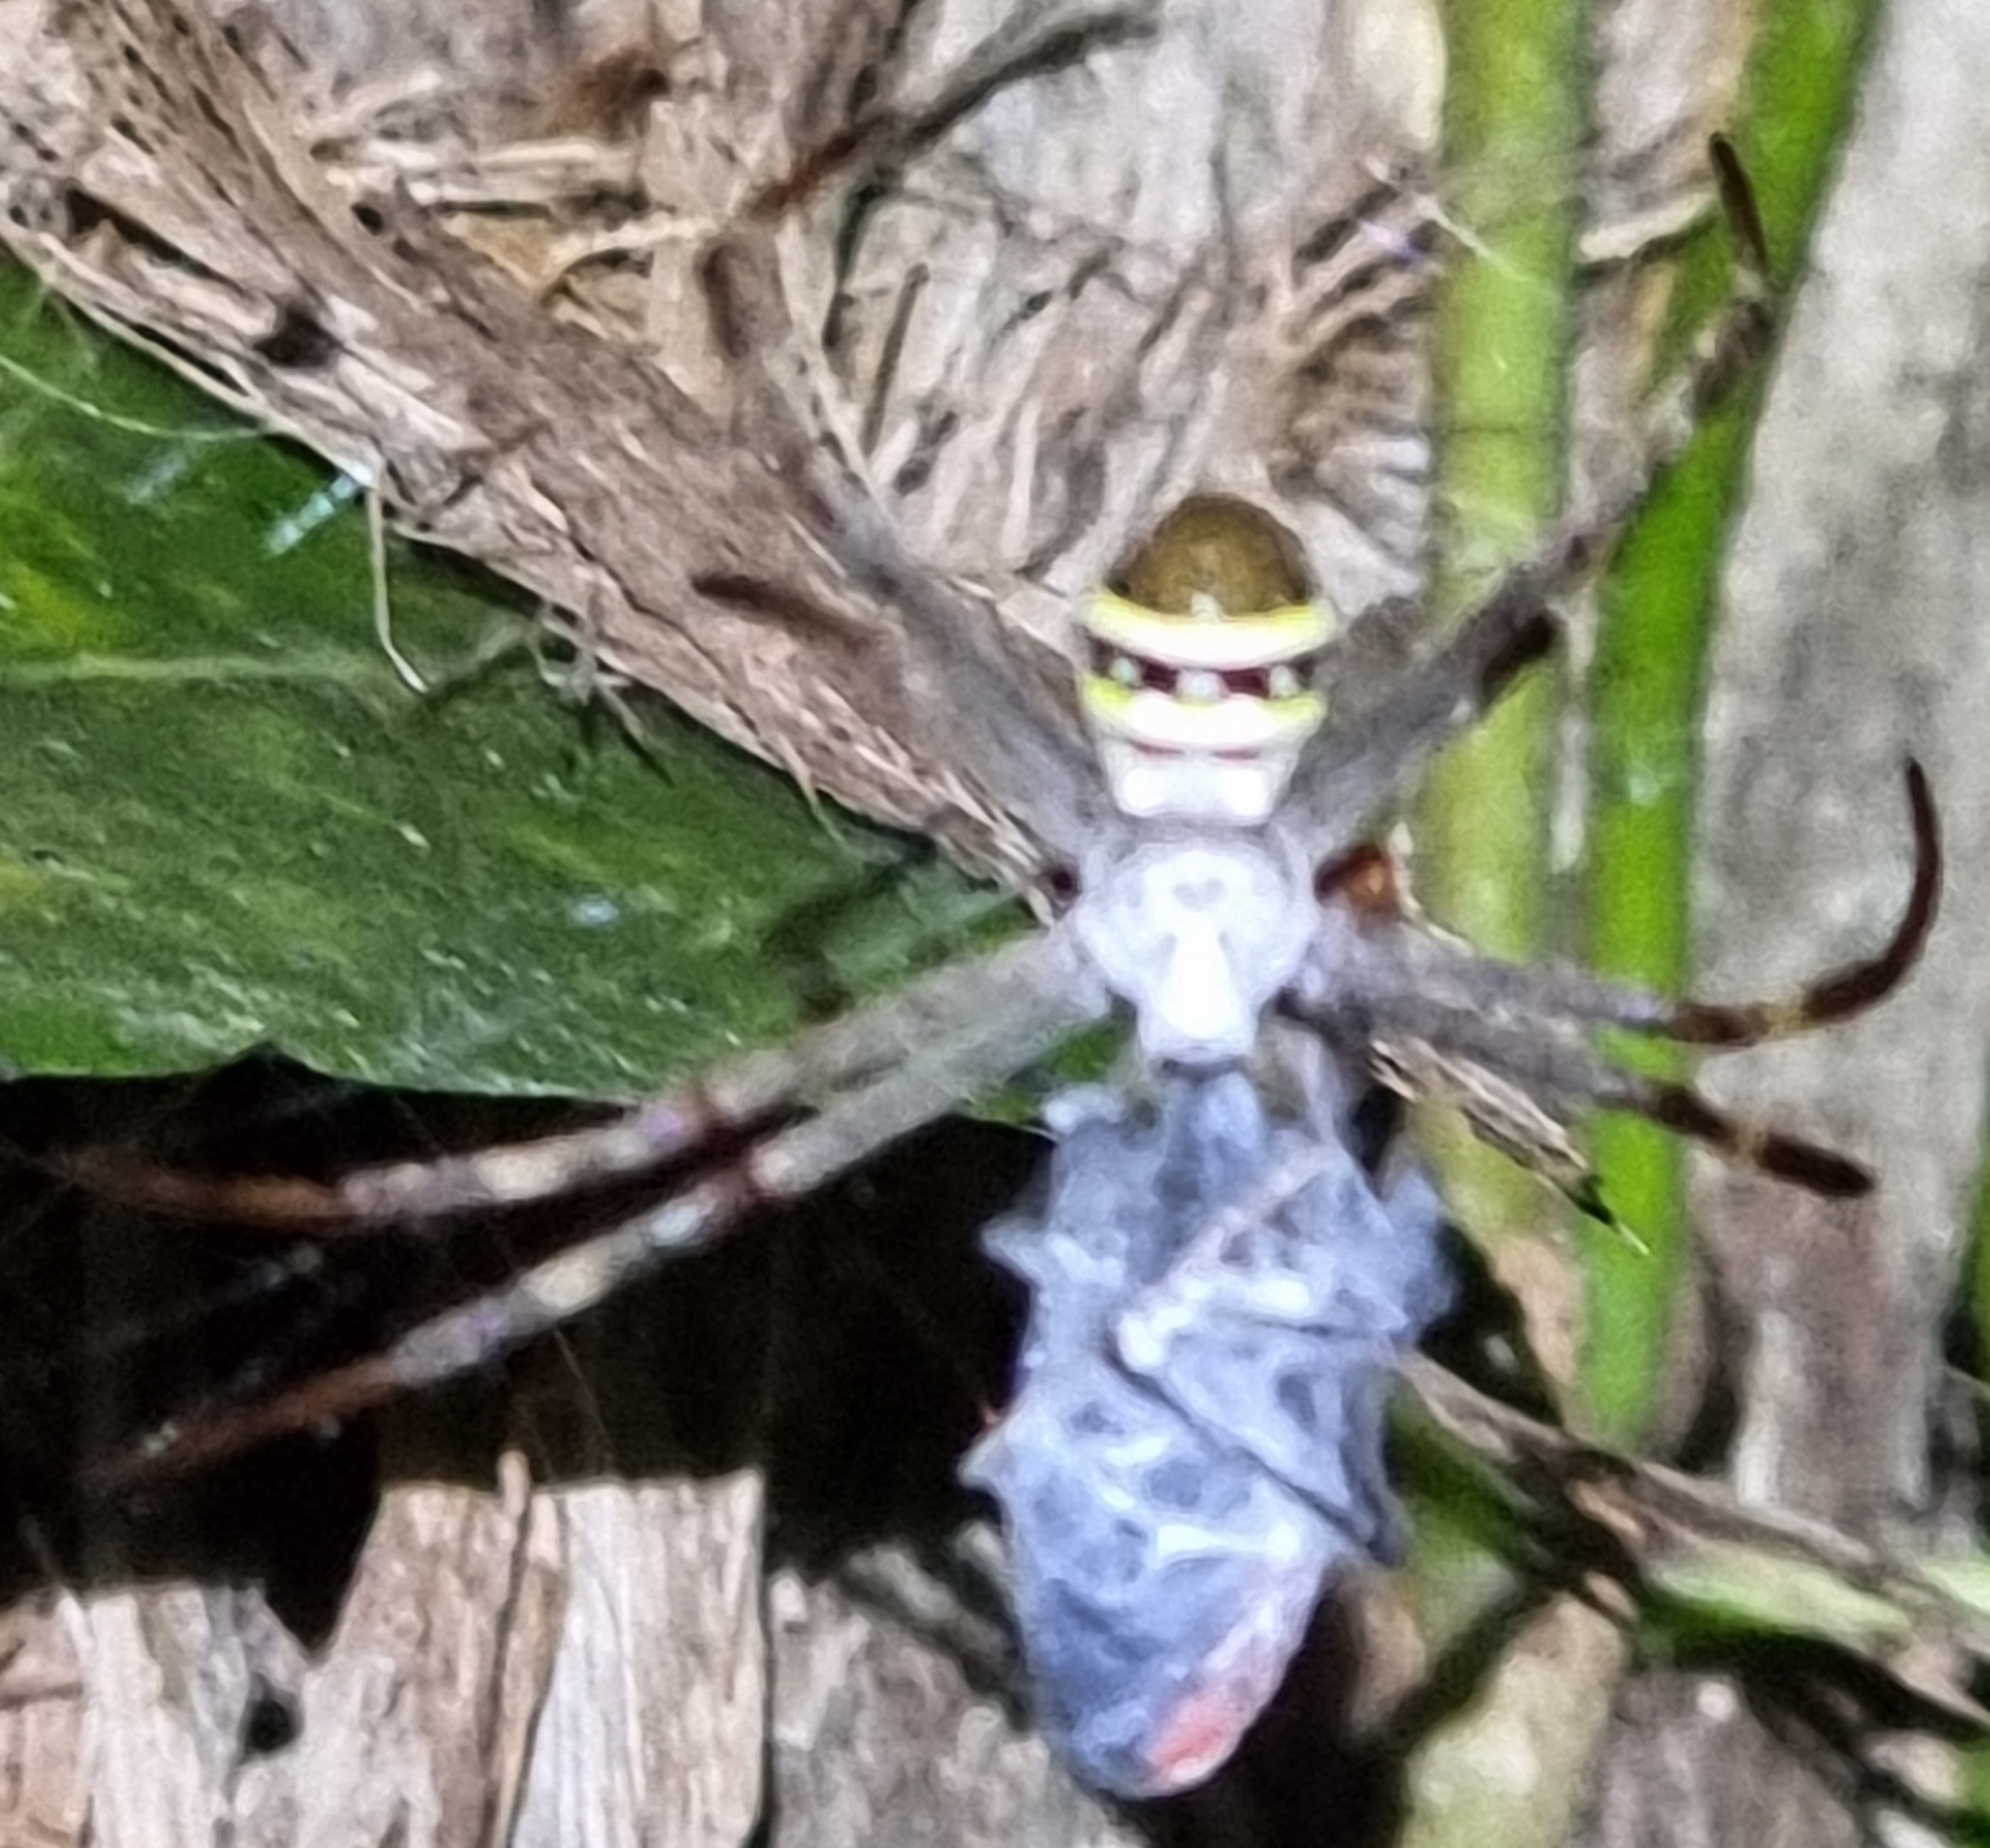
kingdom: Animalia
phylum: Arthropoda
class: Arachnida
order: Araneae
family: Araneidae
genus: Argiope
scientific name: Argiope keyserlingi
